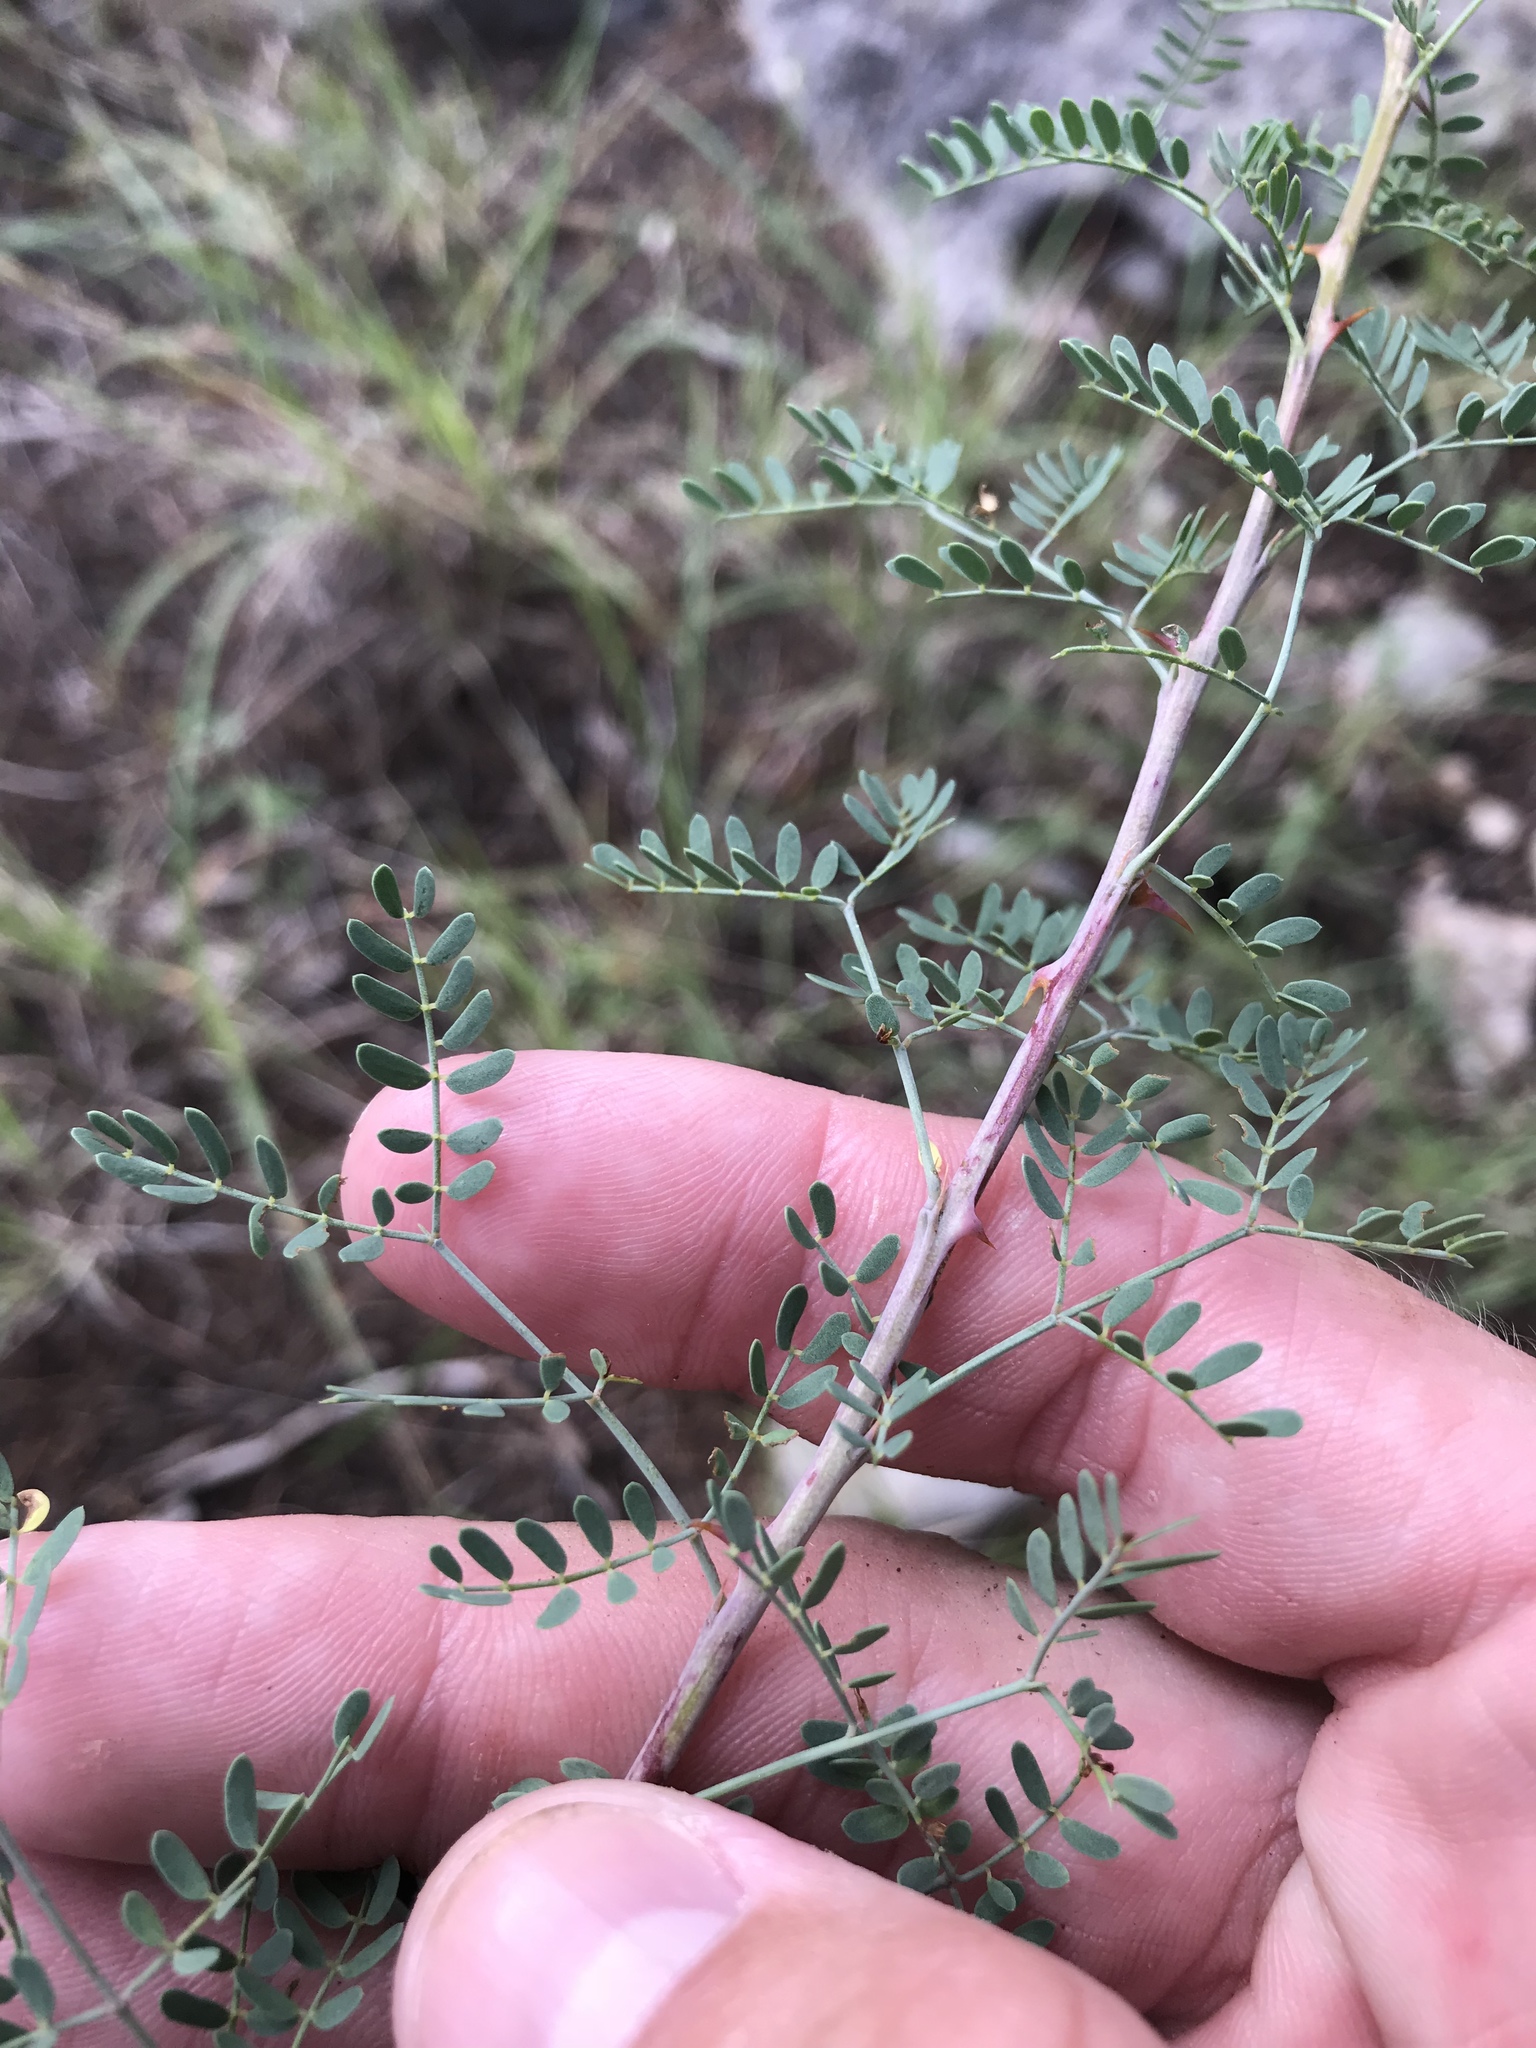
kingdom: Plantae
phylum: Tracheophyta
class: Magnoliopsida
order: Fabales
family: Fabaceae
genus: Mimosa
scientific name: Mimosa borealis
